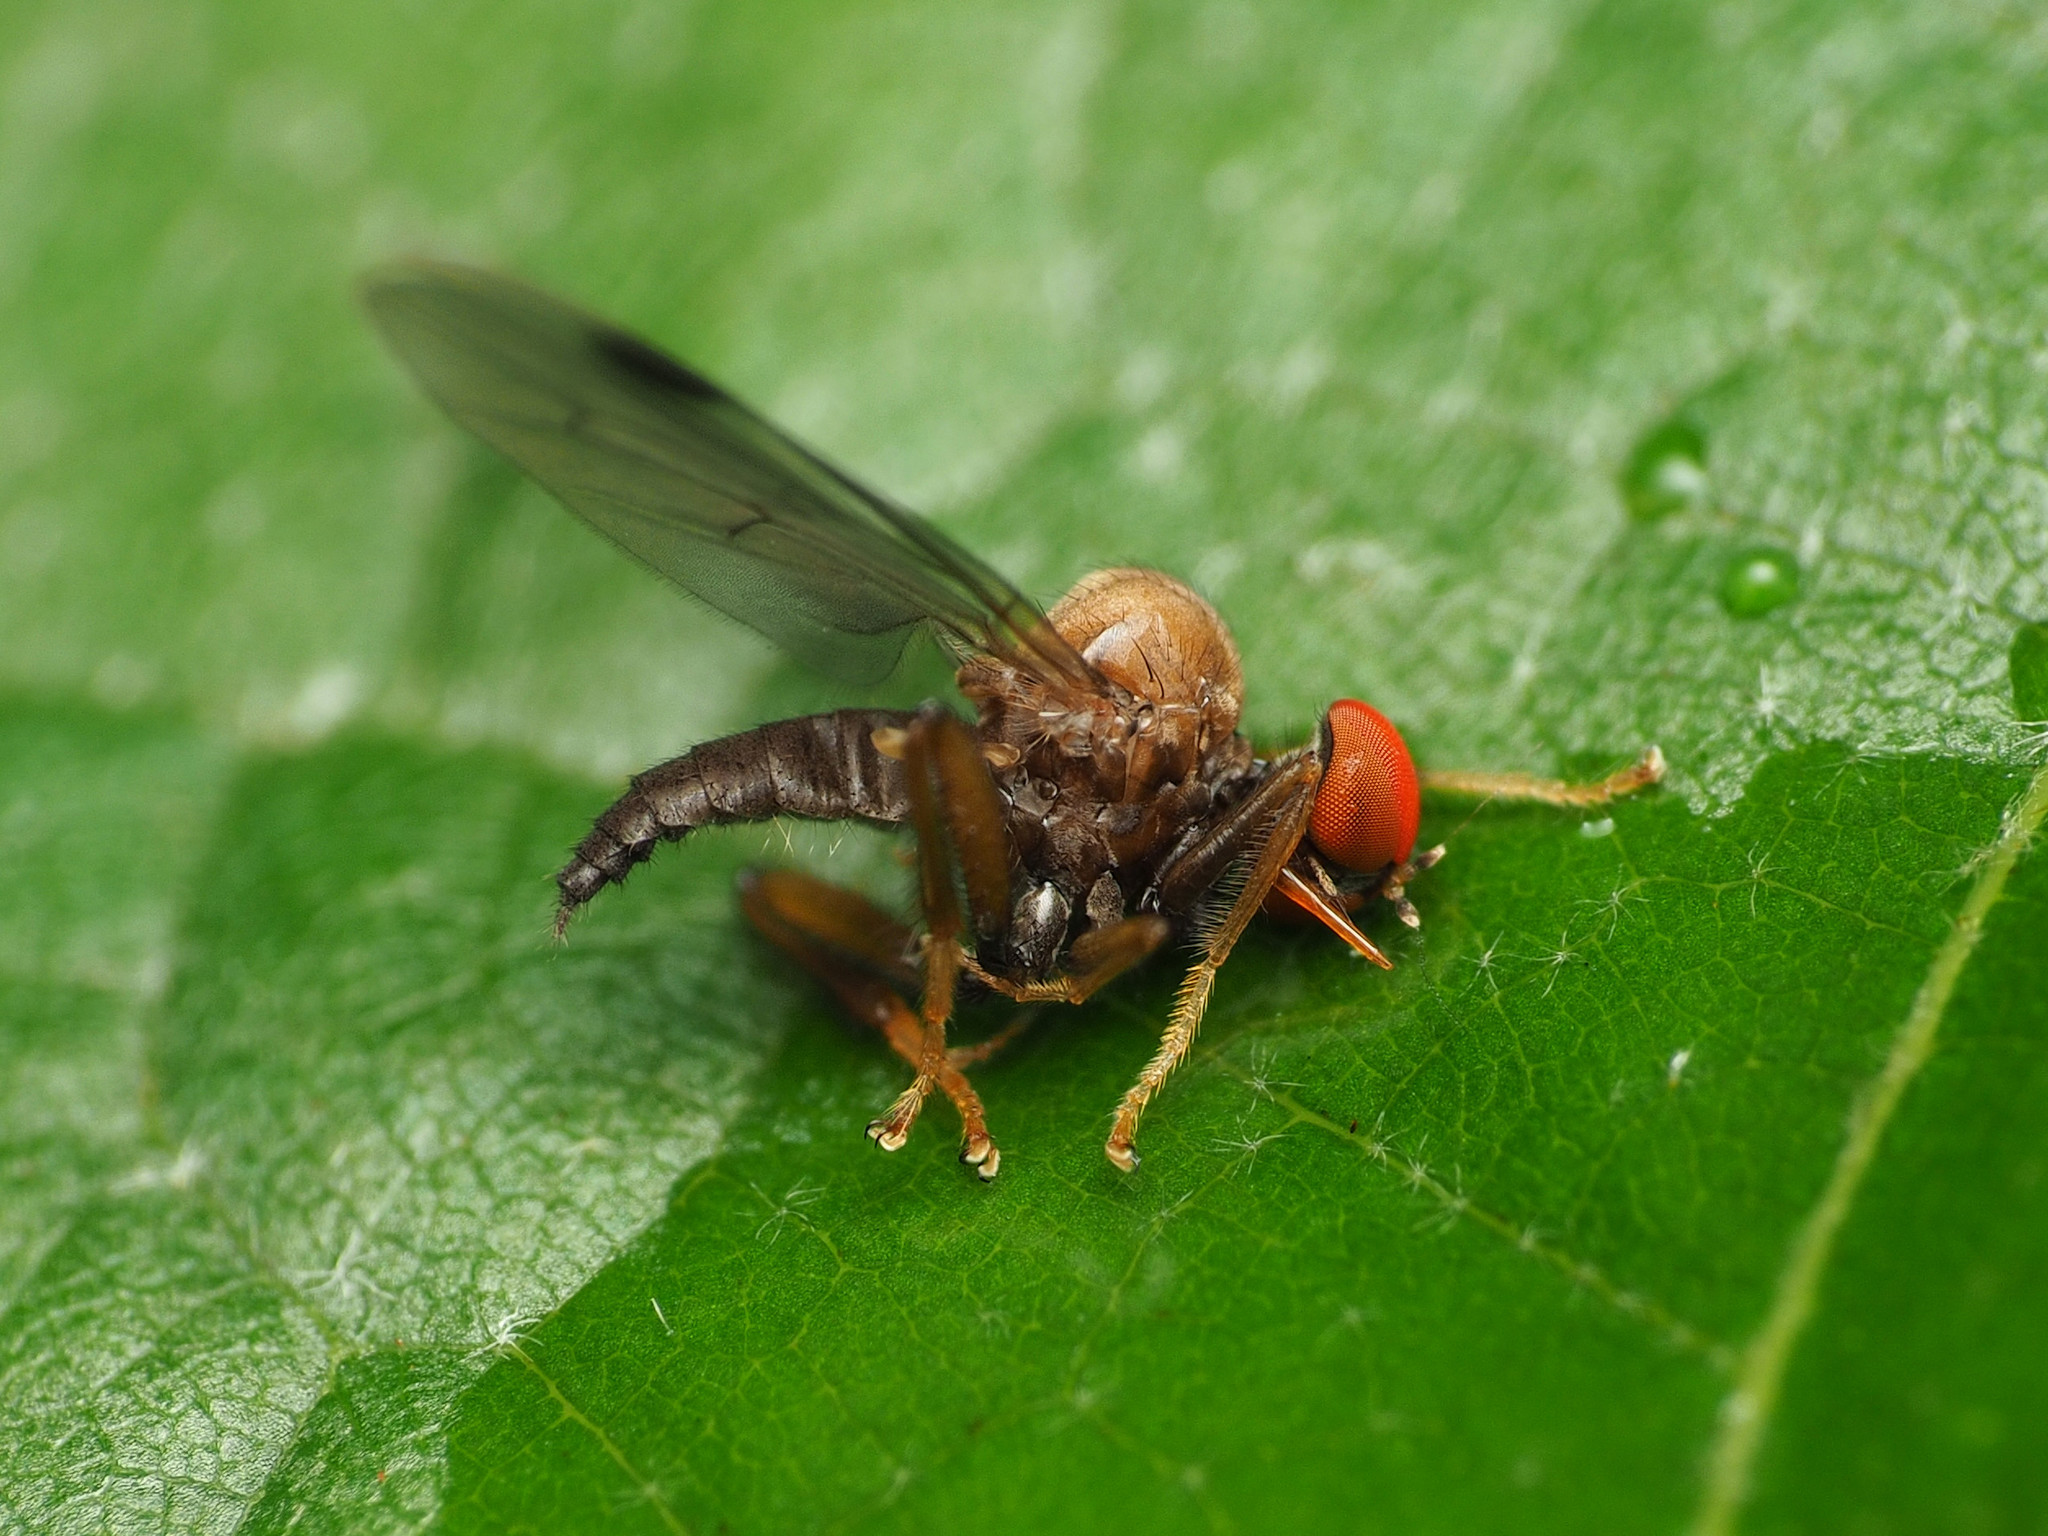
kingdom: Animalia
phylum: Arthropoda
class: Insecta
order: Diptera
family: Hybotidae
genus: Syneches
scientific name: Syneches thoracicus
